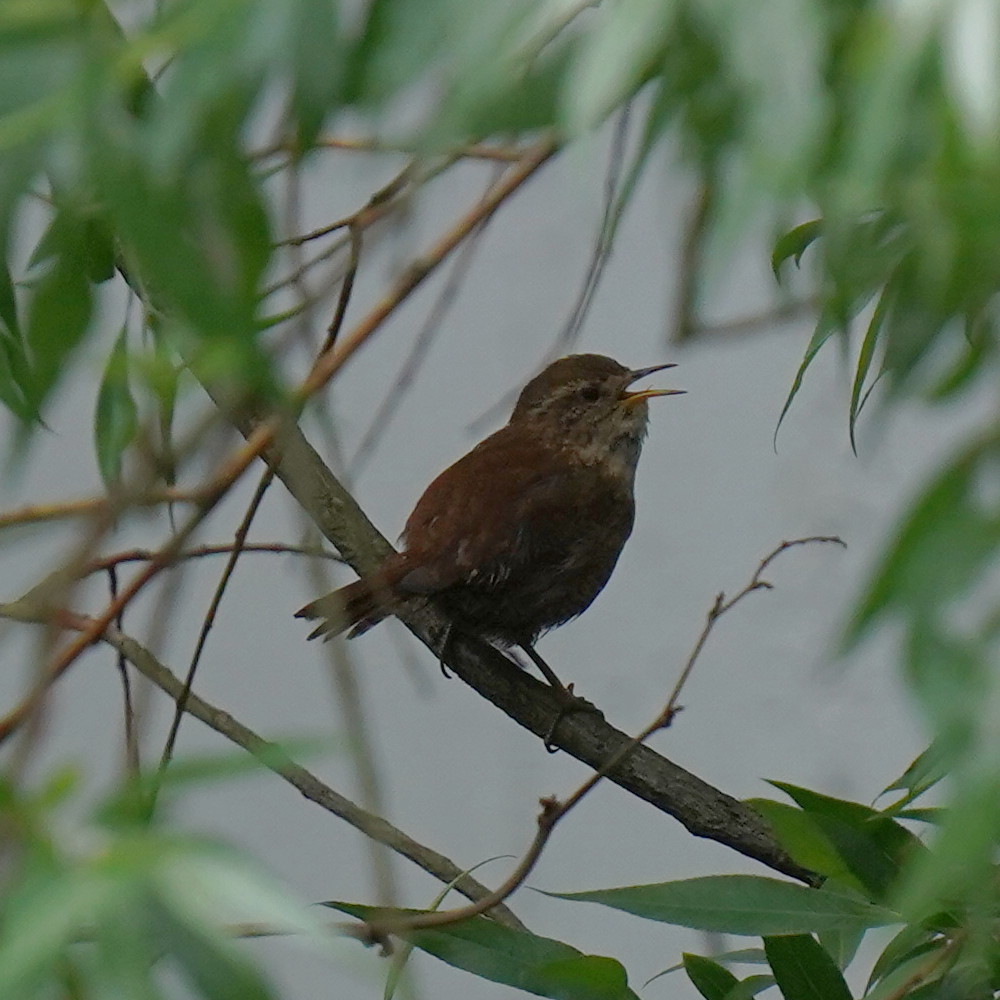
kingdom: Animalia
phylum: Chordata
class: Aves
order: Passeriformes
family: Troglodytidae
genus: Troglodytes
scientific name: Troglodytes troglodytes
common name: Eurasian wren
